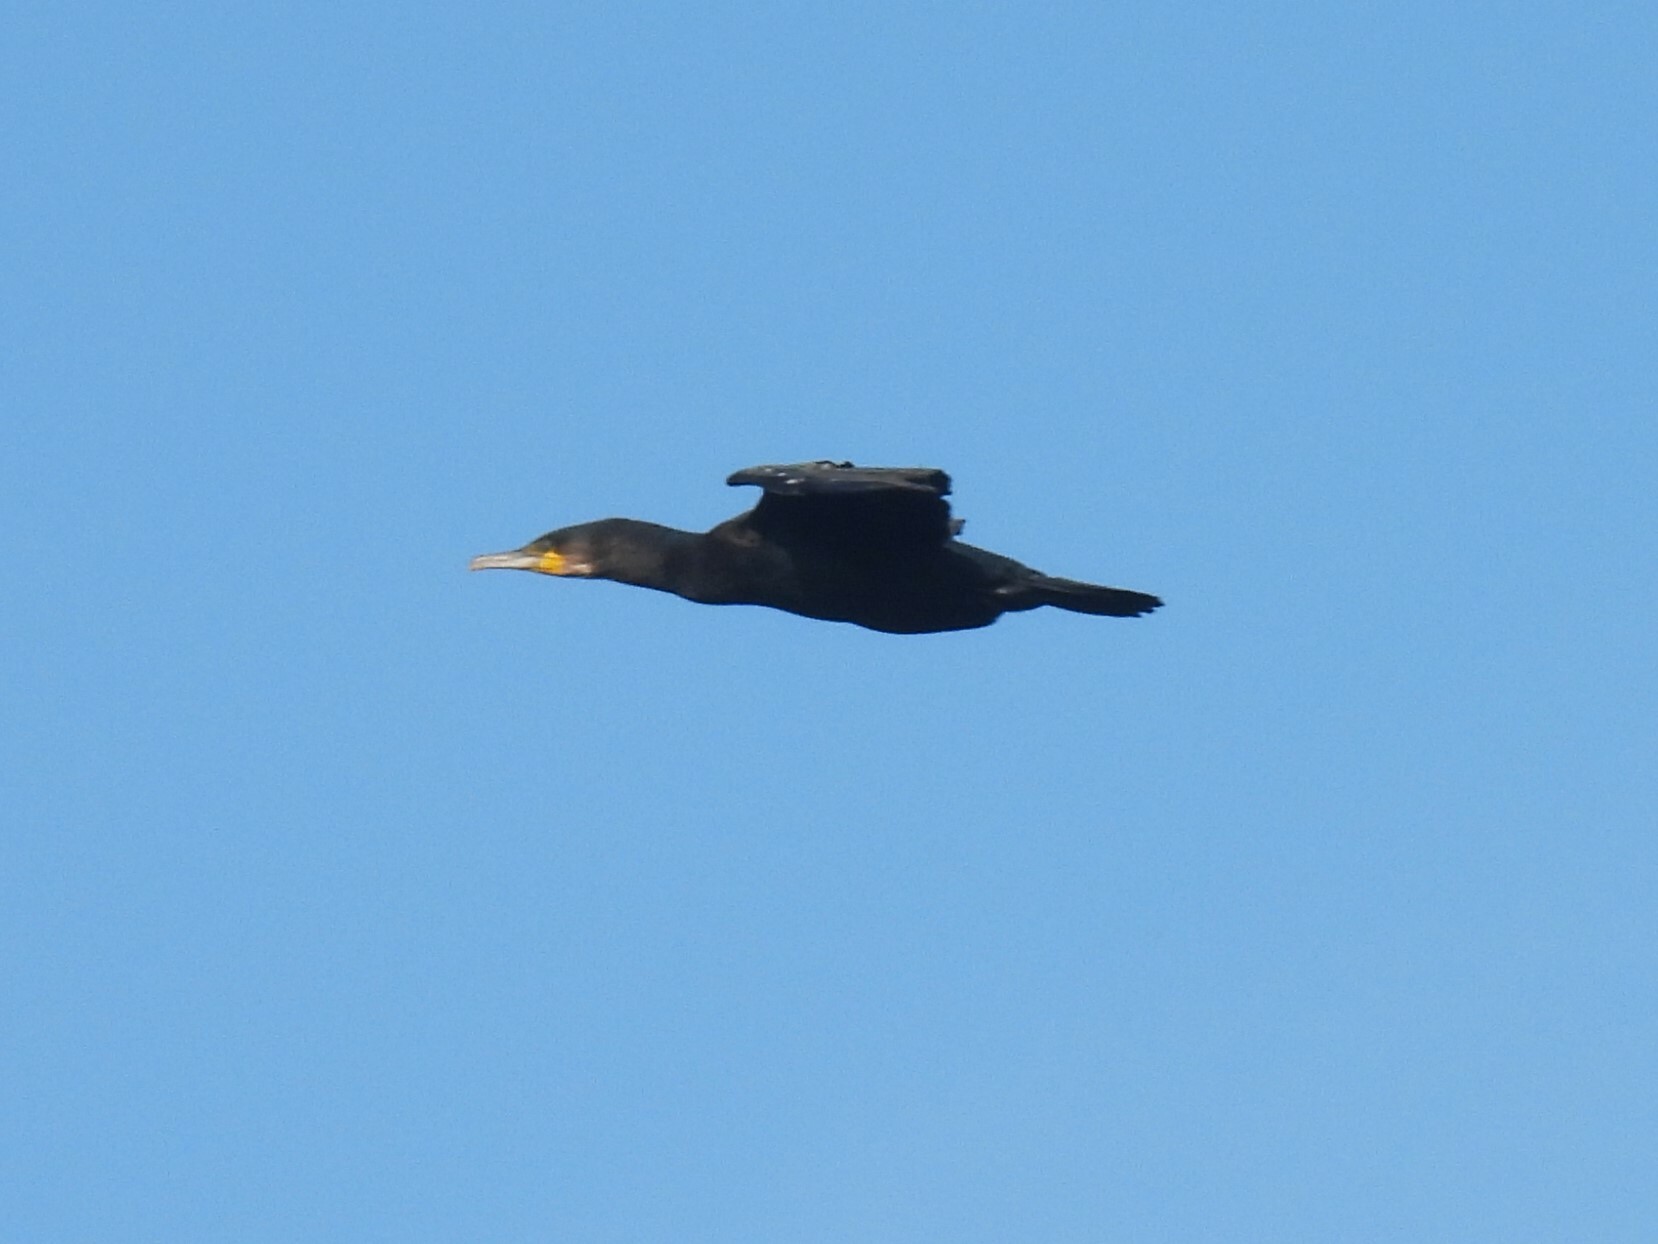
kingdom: Animalia
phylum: Chordata
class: Aves
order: Suliformes
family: Phalacrocoracidae
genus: Phalacrocorax
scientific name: Phalacrocorax carbo
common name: Great cormorant
